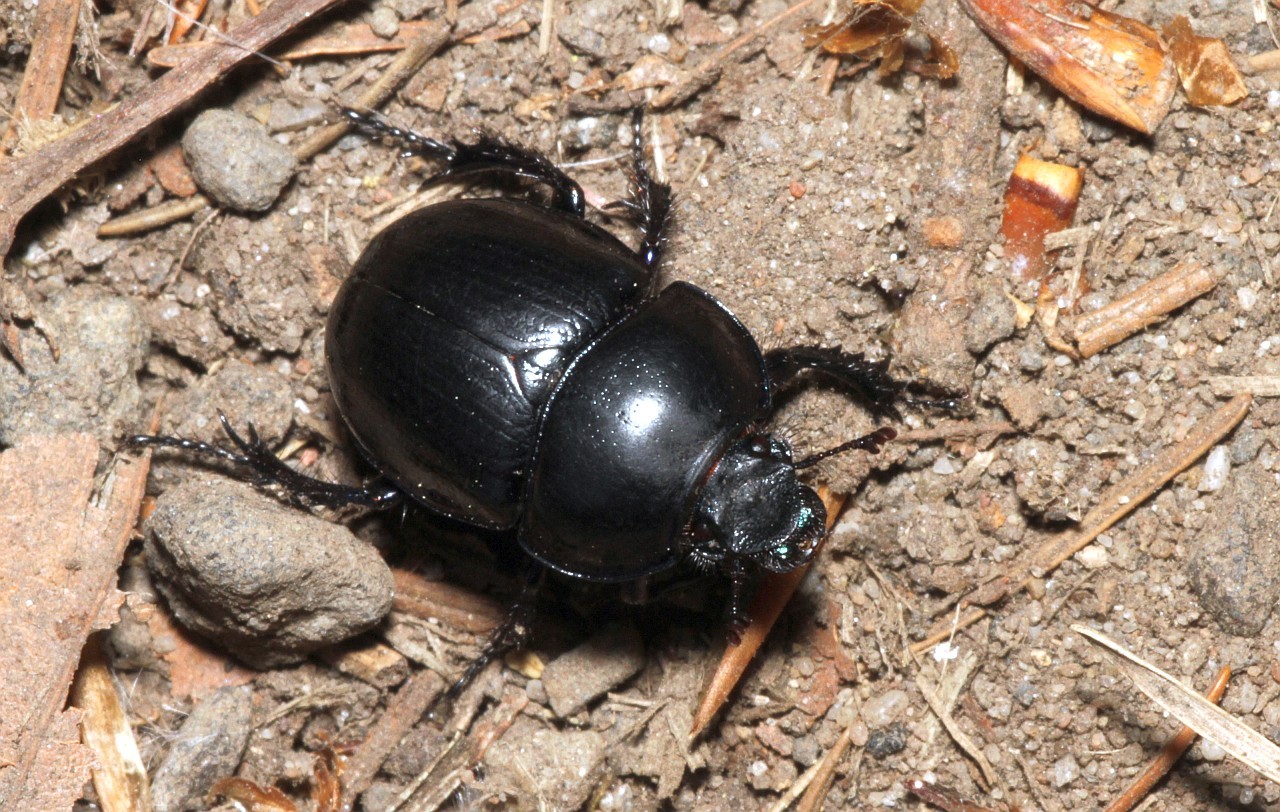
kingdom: Animalia
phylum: Arthropoda
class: Insecta
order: Coleoptera
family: Geotrupidae
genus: Anoplotrupes
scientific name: Anoplotrupes stercorosus
